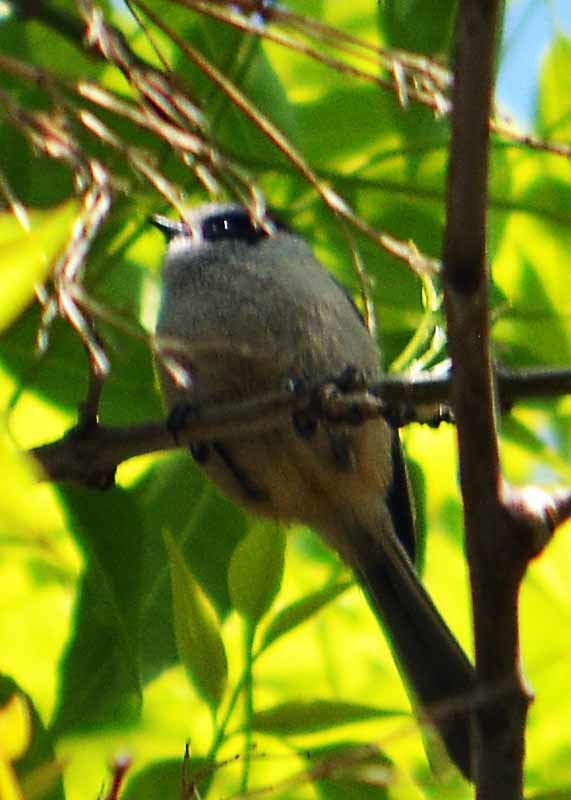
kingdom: Animalia
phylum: Chordata
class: Aves
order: Passeriformes
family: Aegithalidae
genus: Psaltriparus
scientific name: Psaltriparus minimus
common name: American bushtit
